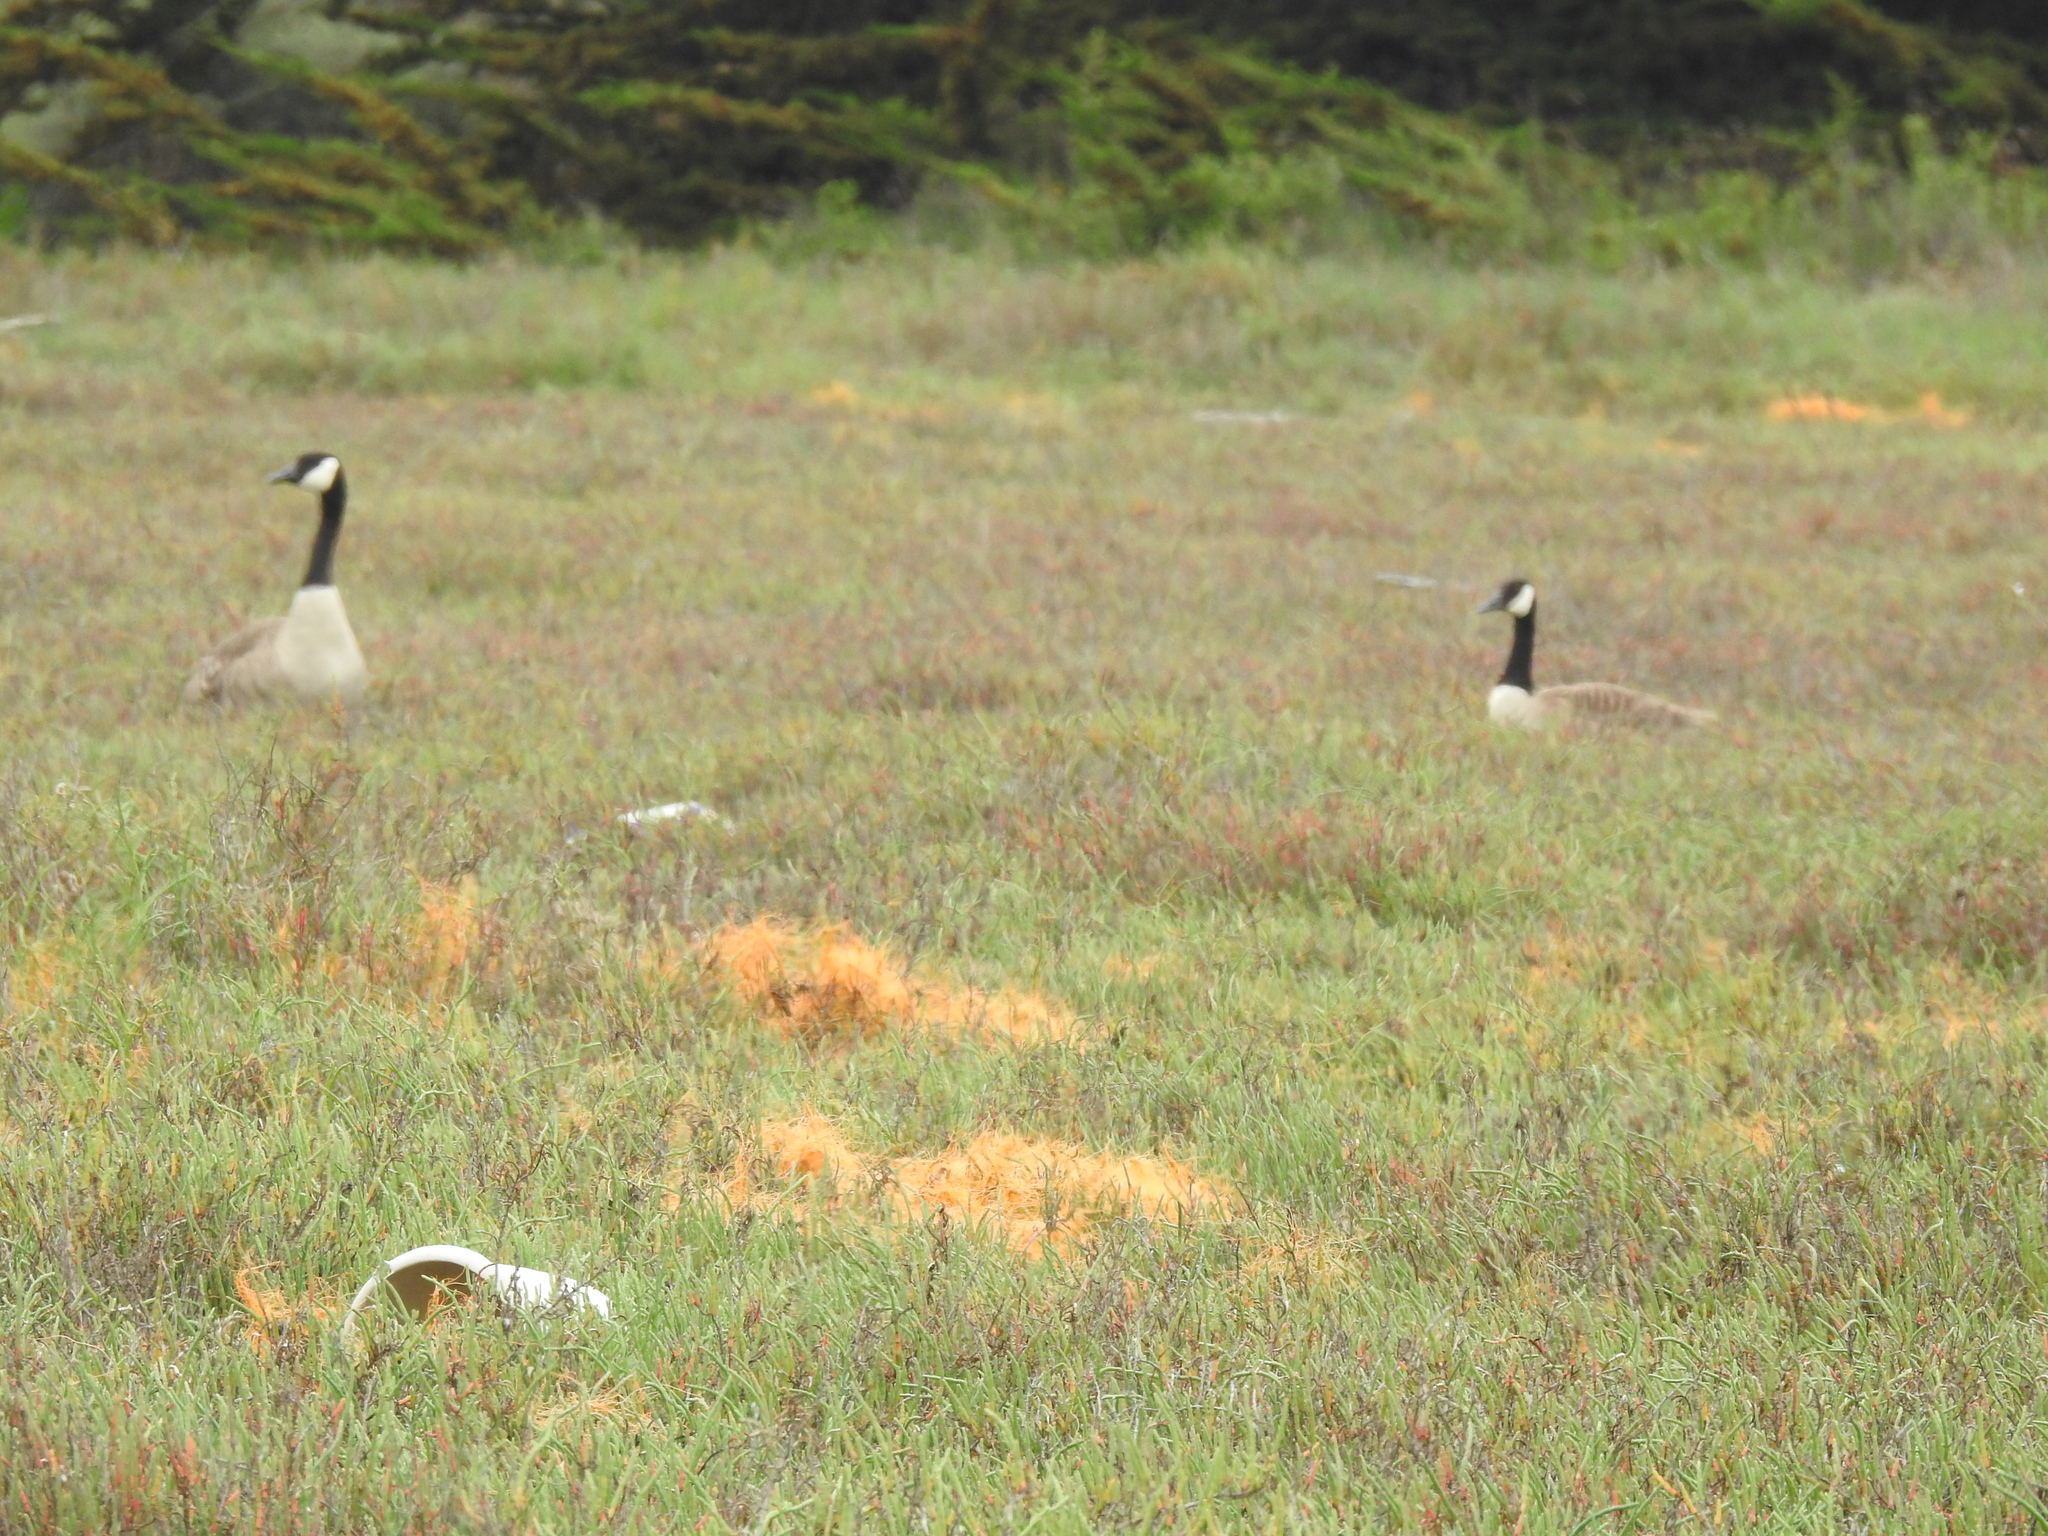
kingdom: Animalia
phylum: Chordata
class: Aves
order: Anseriformes
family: Anatidae
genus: Branta
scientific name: Branta canadensis
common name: Canada goose
